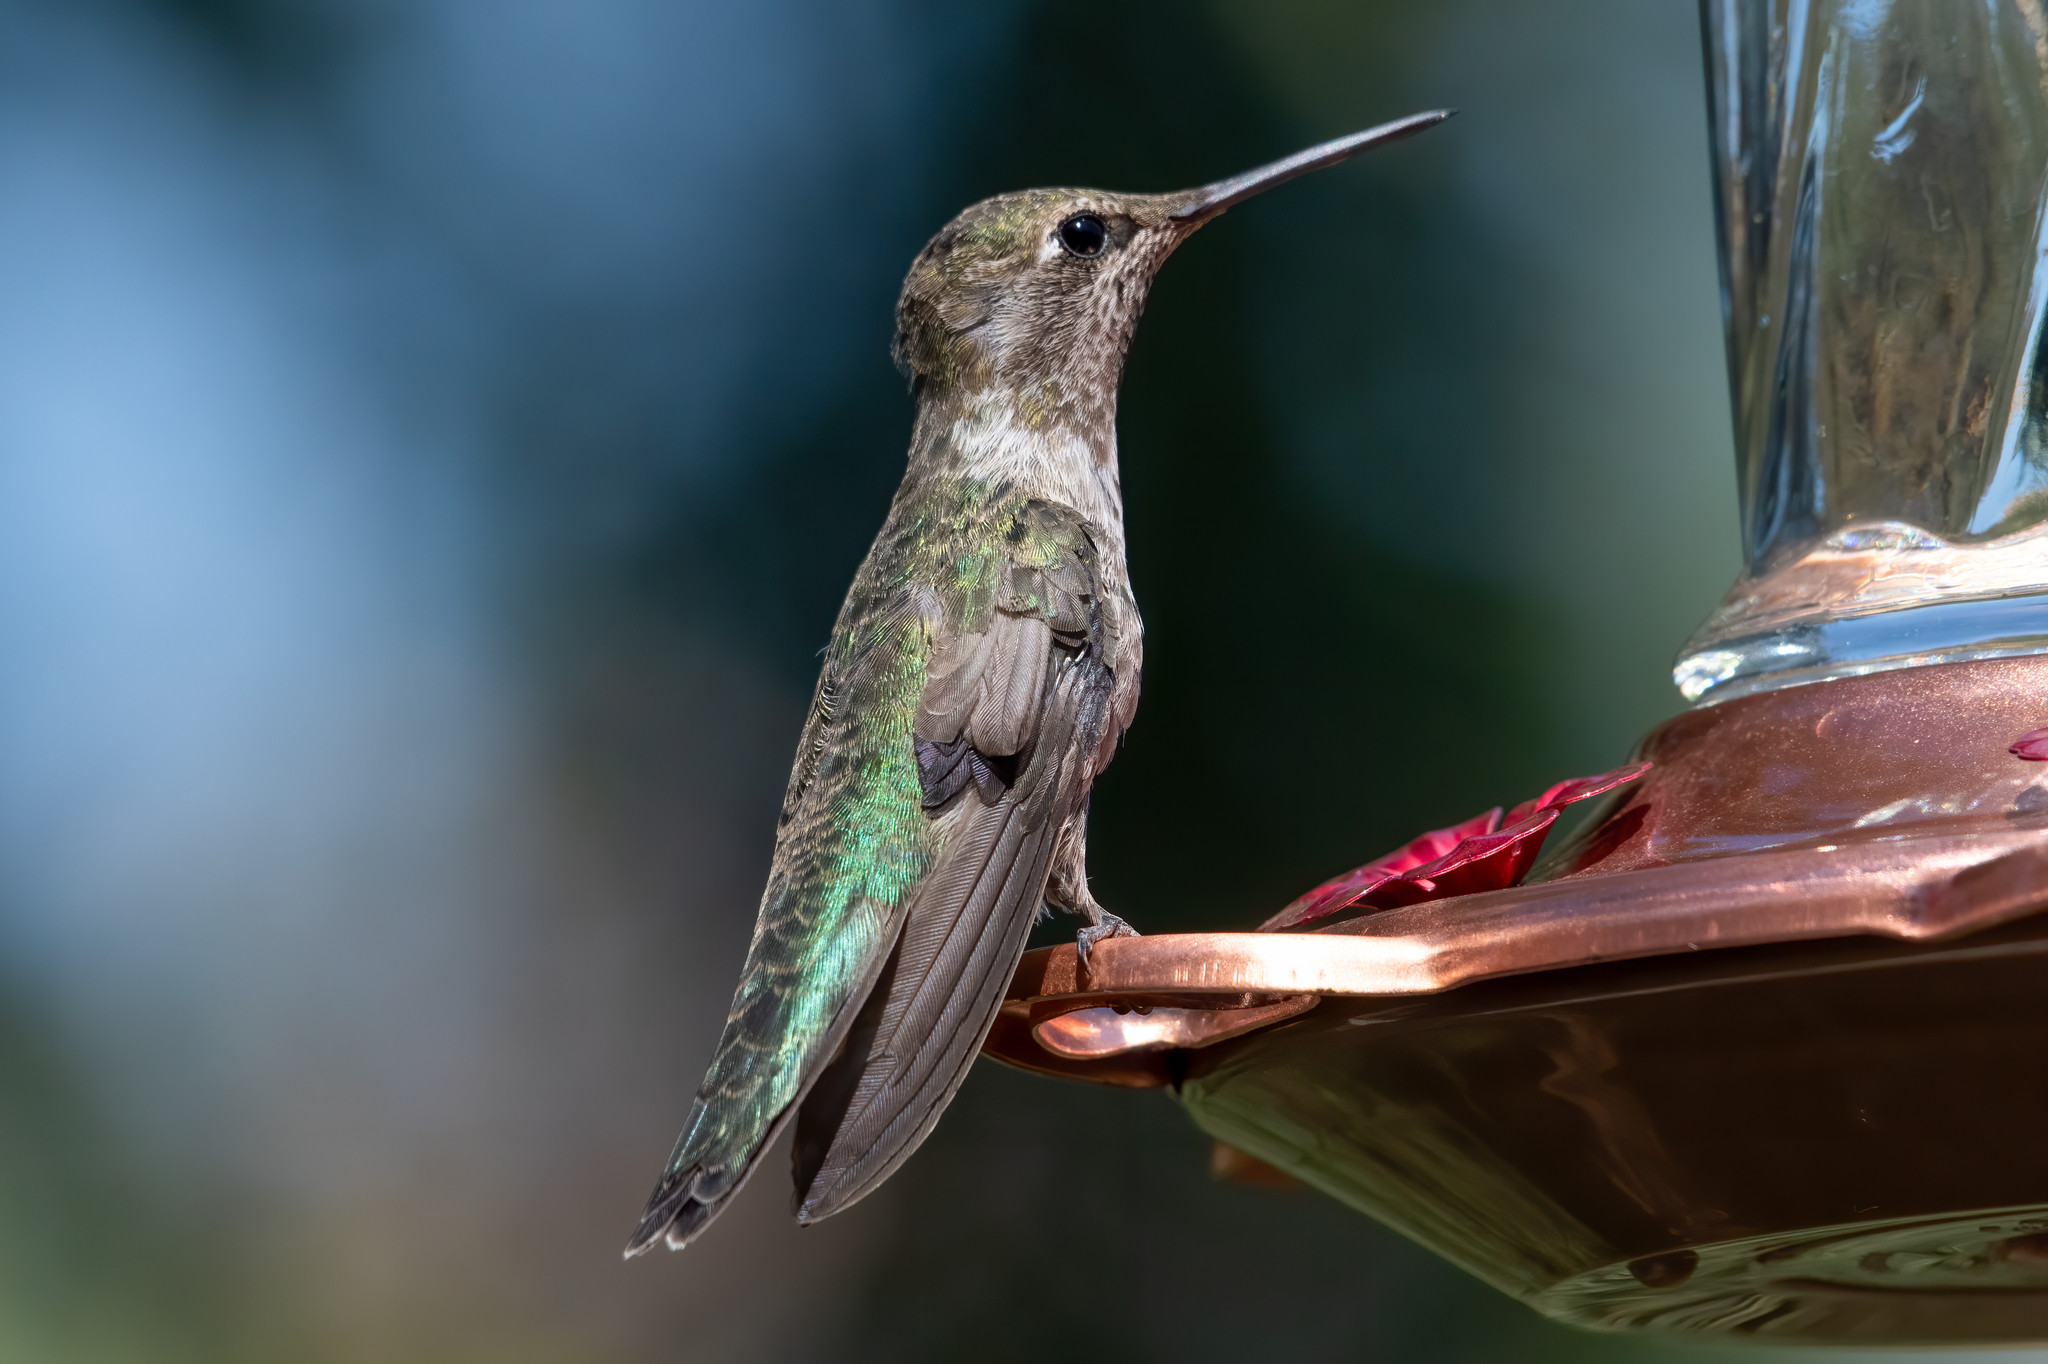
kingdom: Animalia
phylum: Chordata
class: Aves
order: Apodiformes
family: Trochilidae
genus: Calypte
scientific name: Calypte anna
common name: Anna's hummingbird
